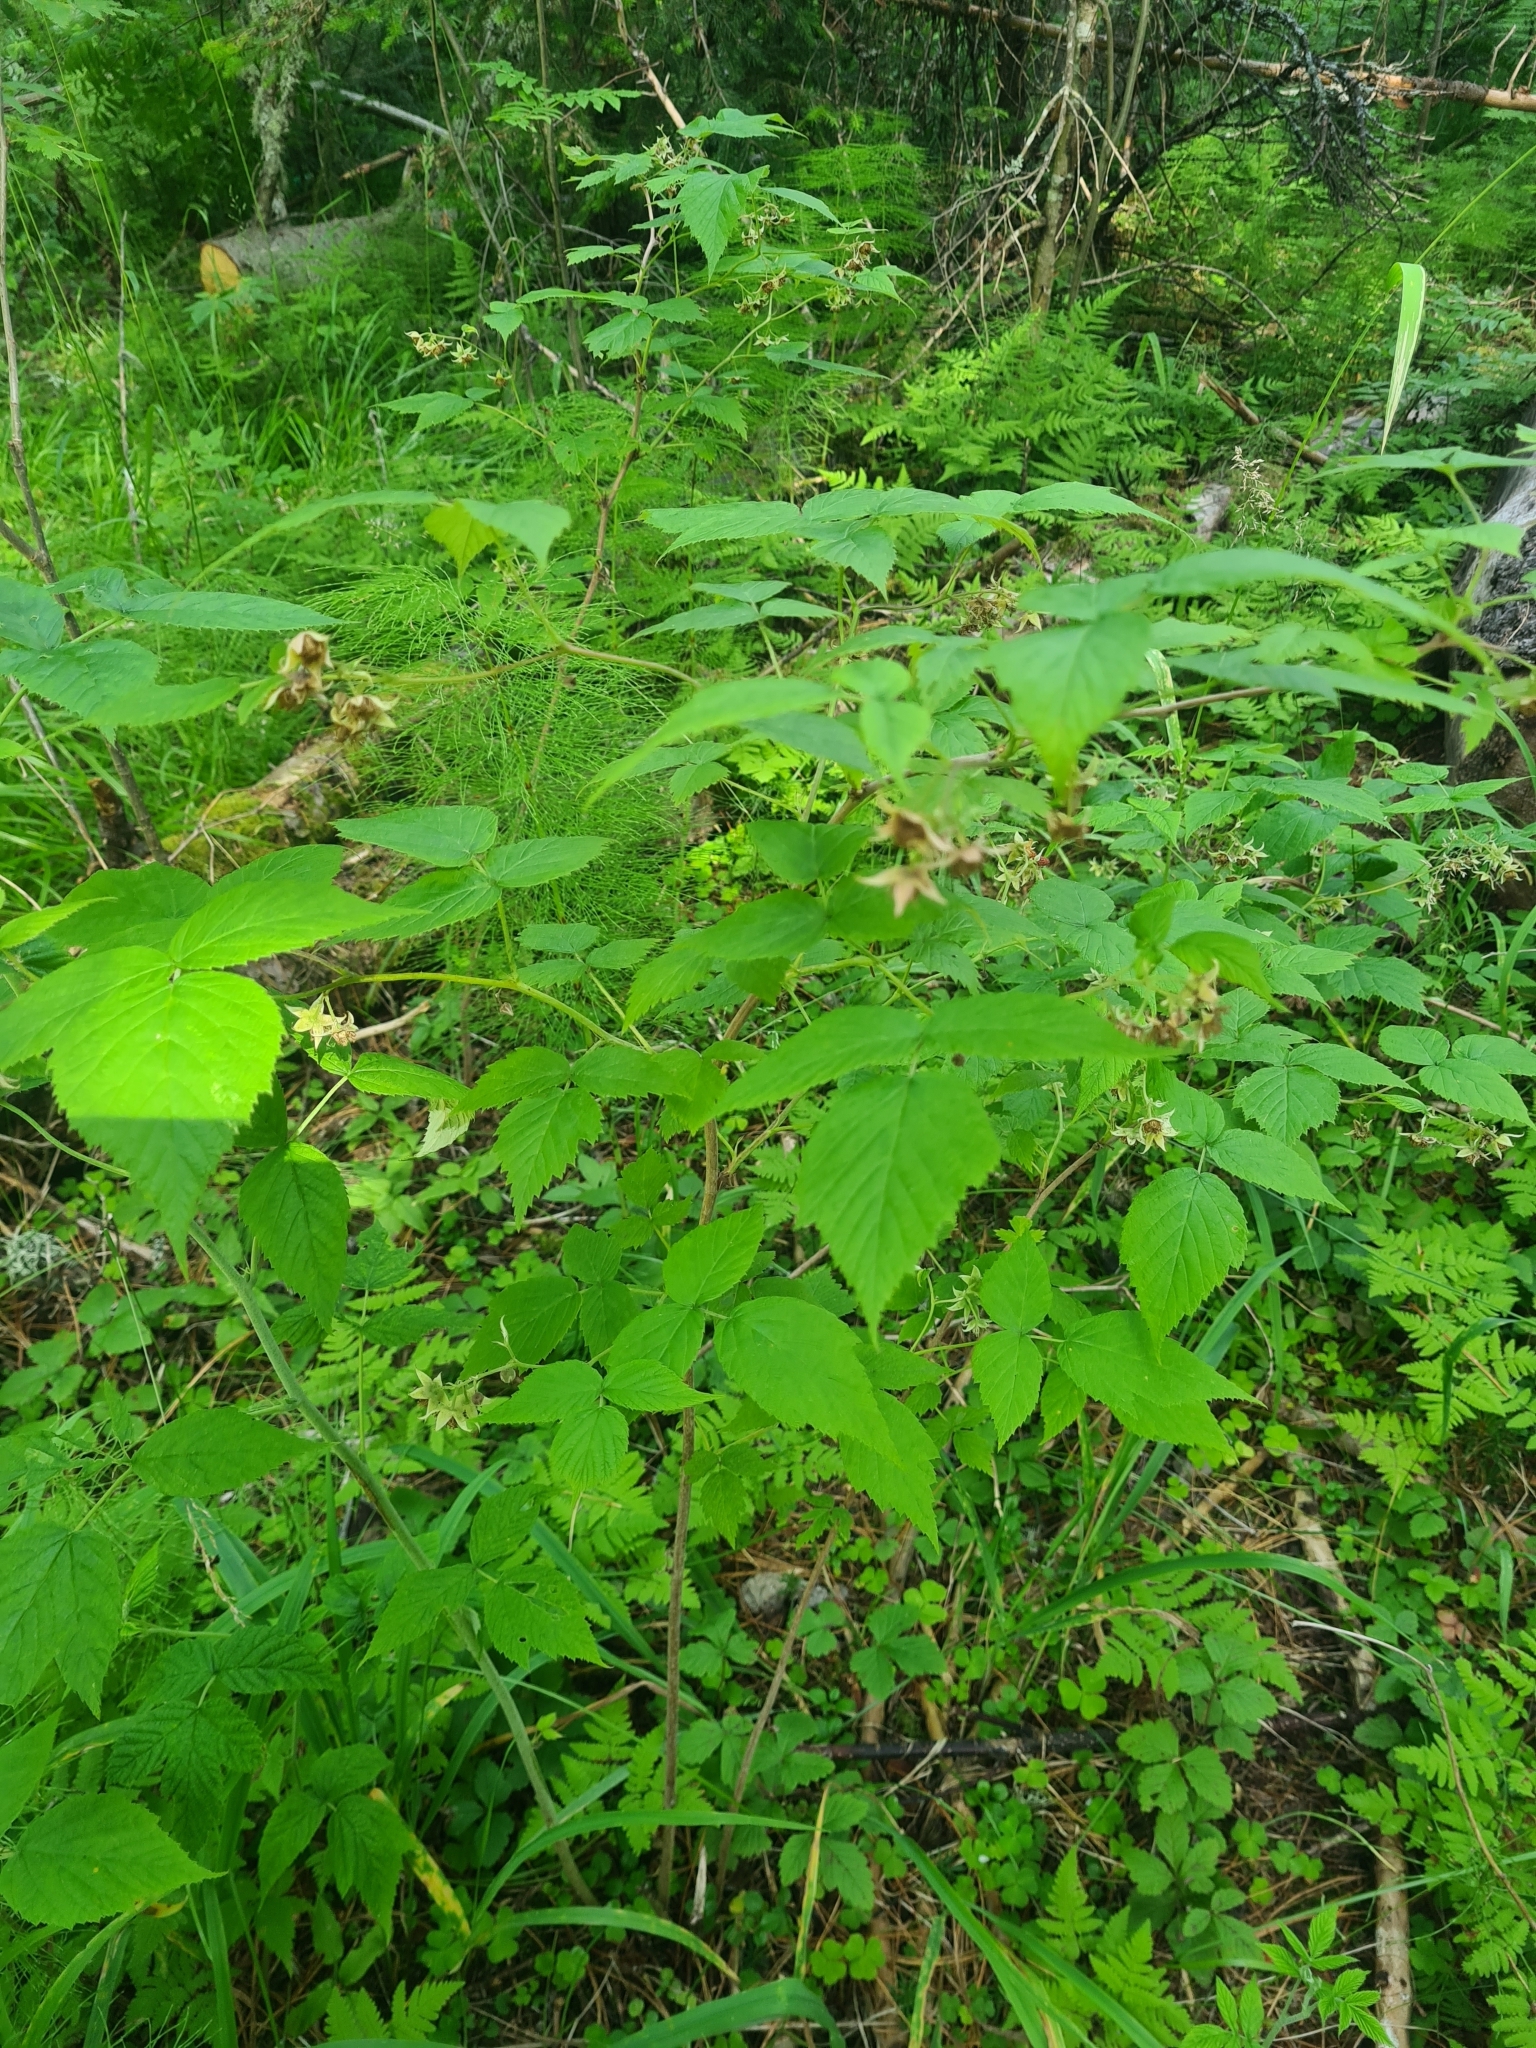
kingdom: Plantae
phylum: Tracheophyta
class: Magnoliopsida
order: Rosales
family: Rosaceae
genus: Rubus
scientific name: Rubus idaeus
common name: Raspberry
